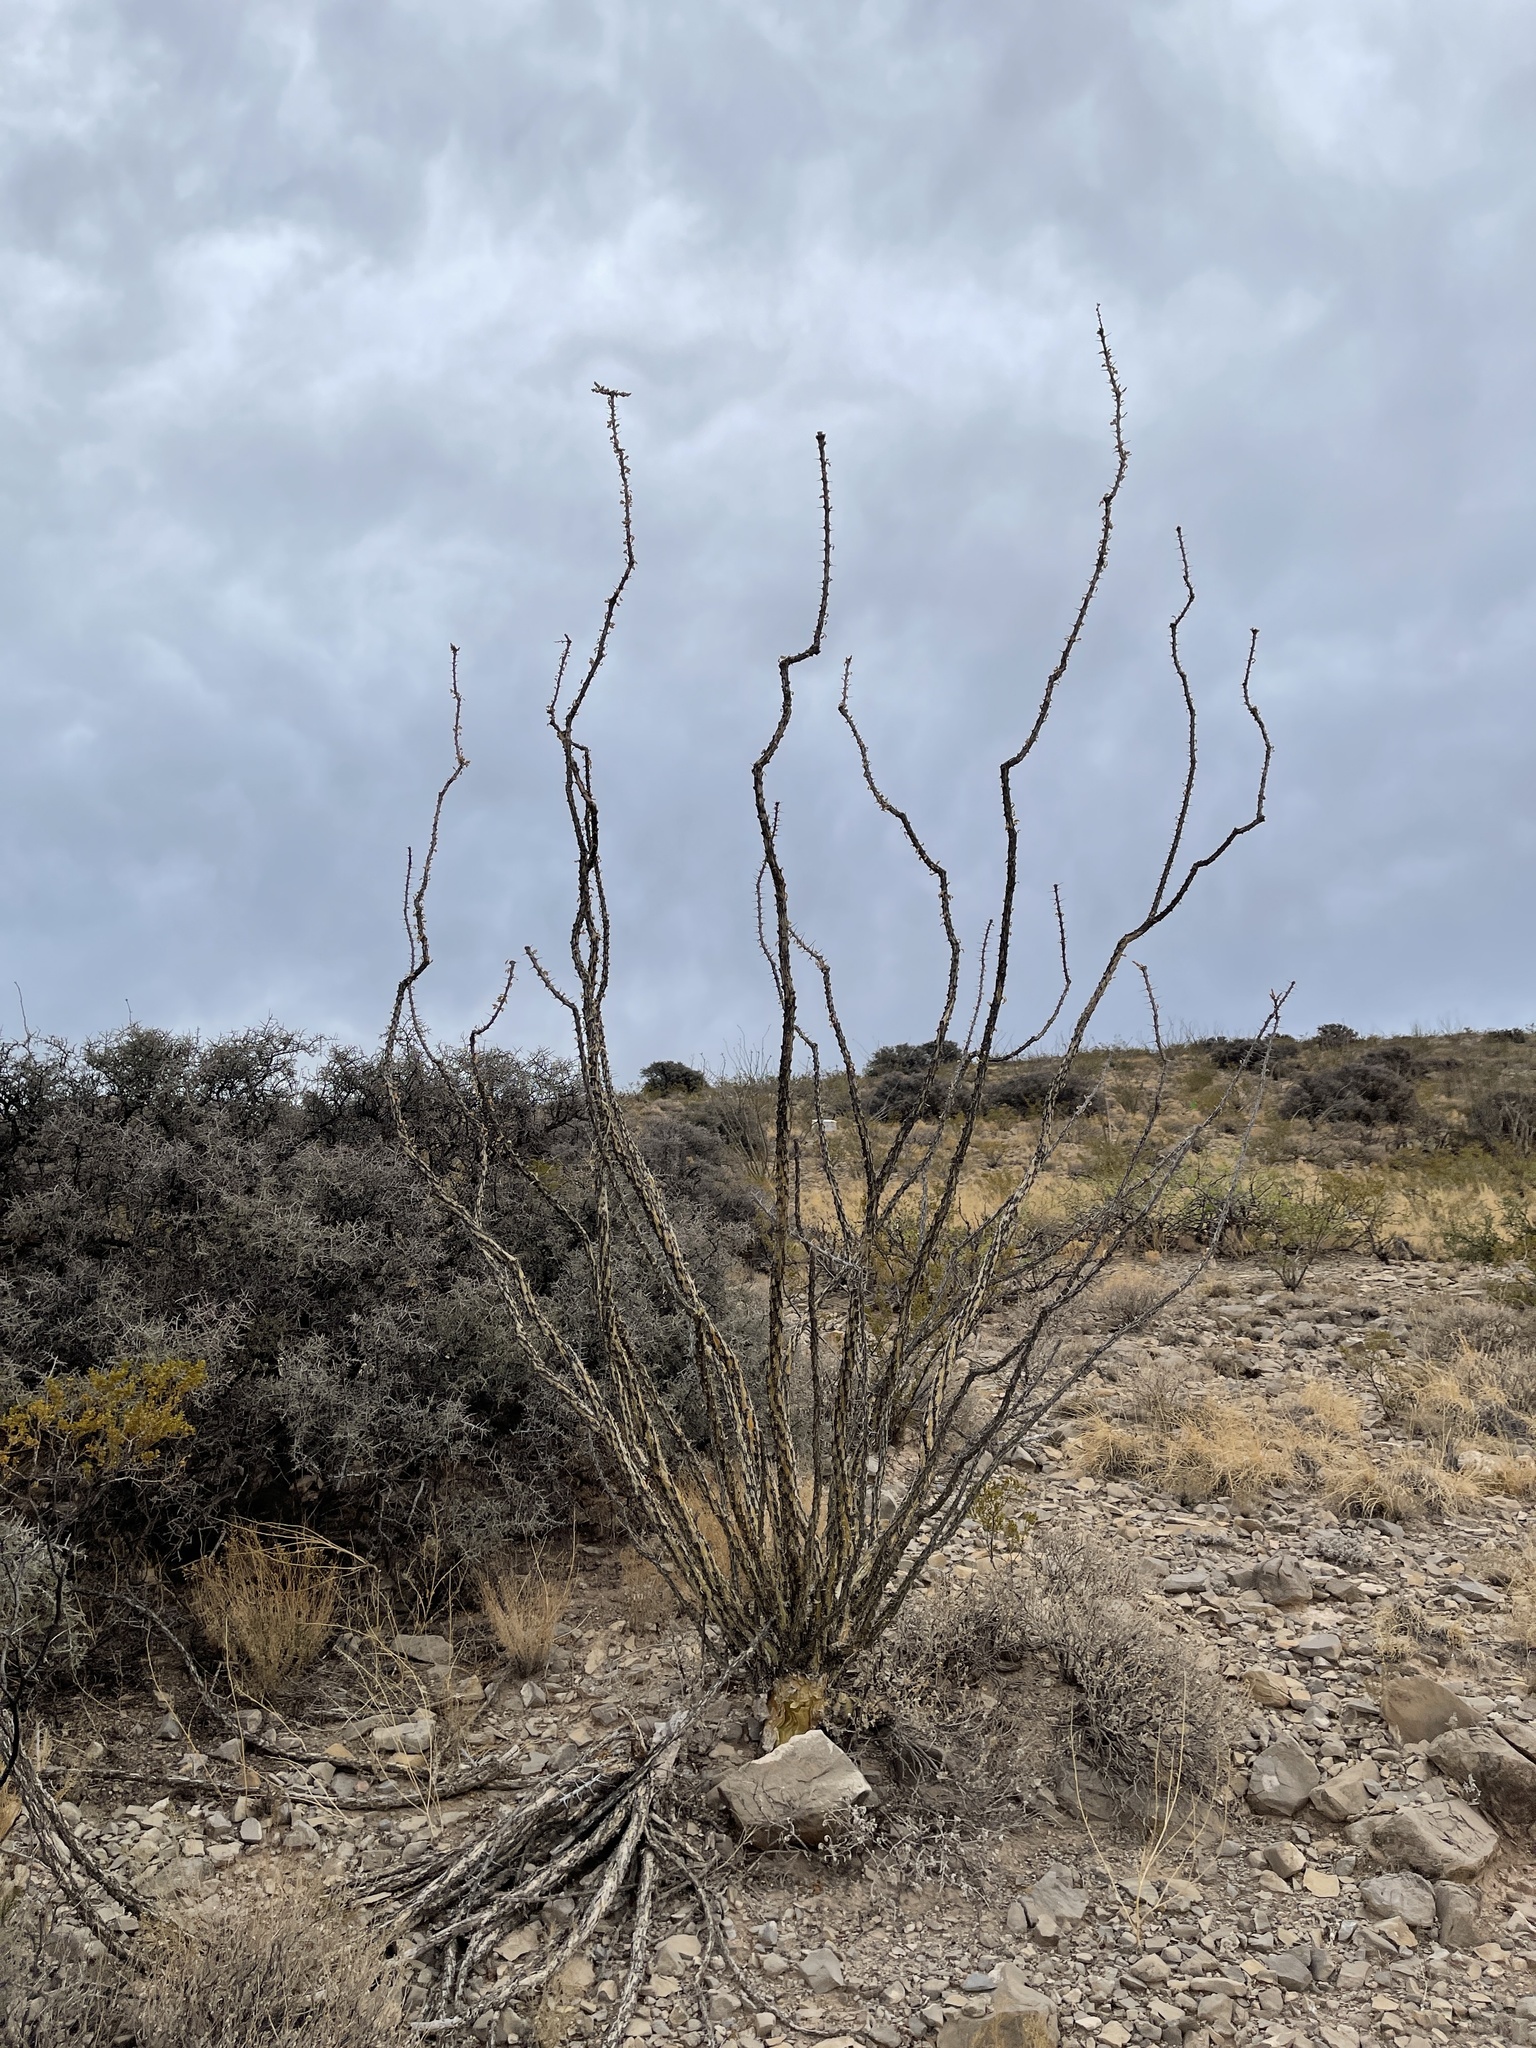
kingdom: Plantae
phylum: Tracheophyta
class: Magnoliopsida
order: Ericales
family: Fouquieriaceae
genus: Fouquieria
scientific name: Fouquieria splendens
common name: Vine-cactus
